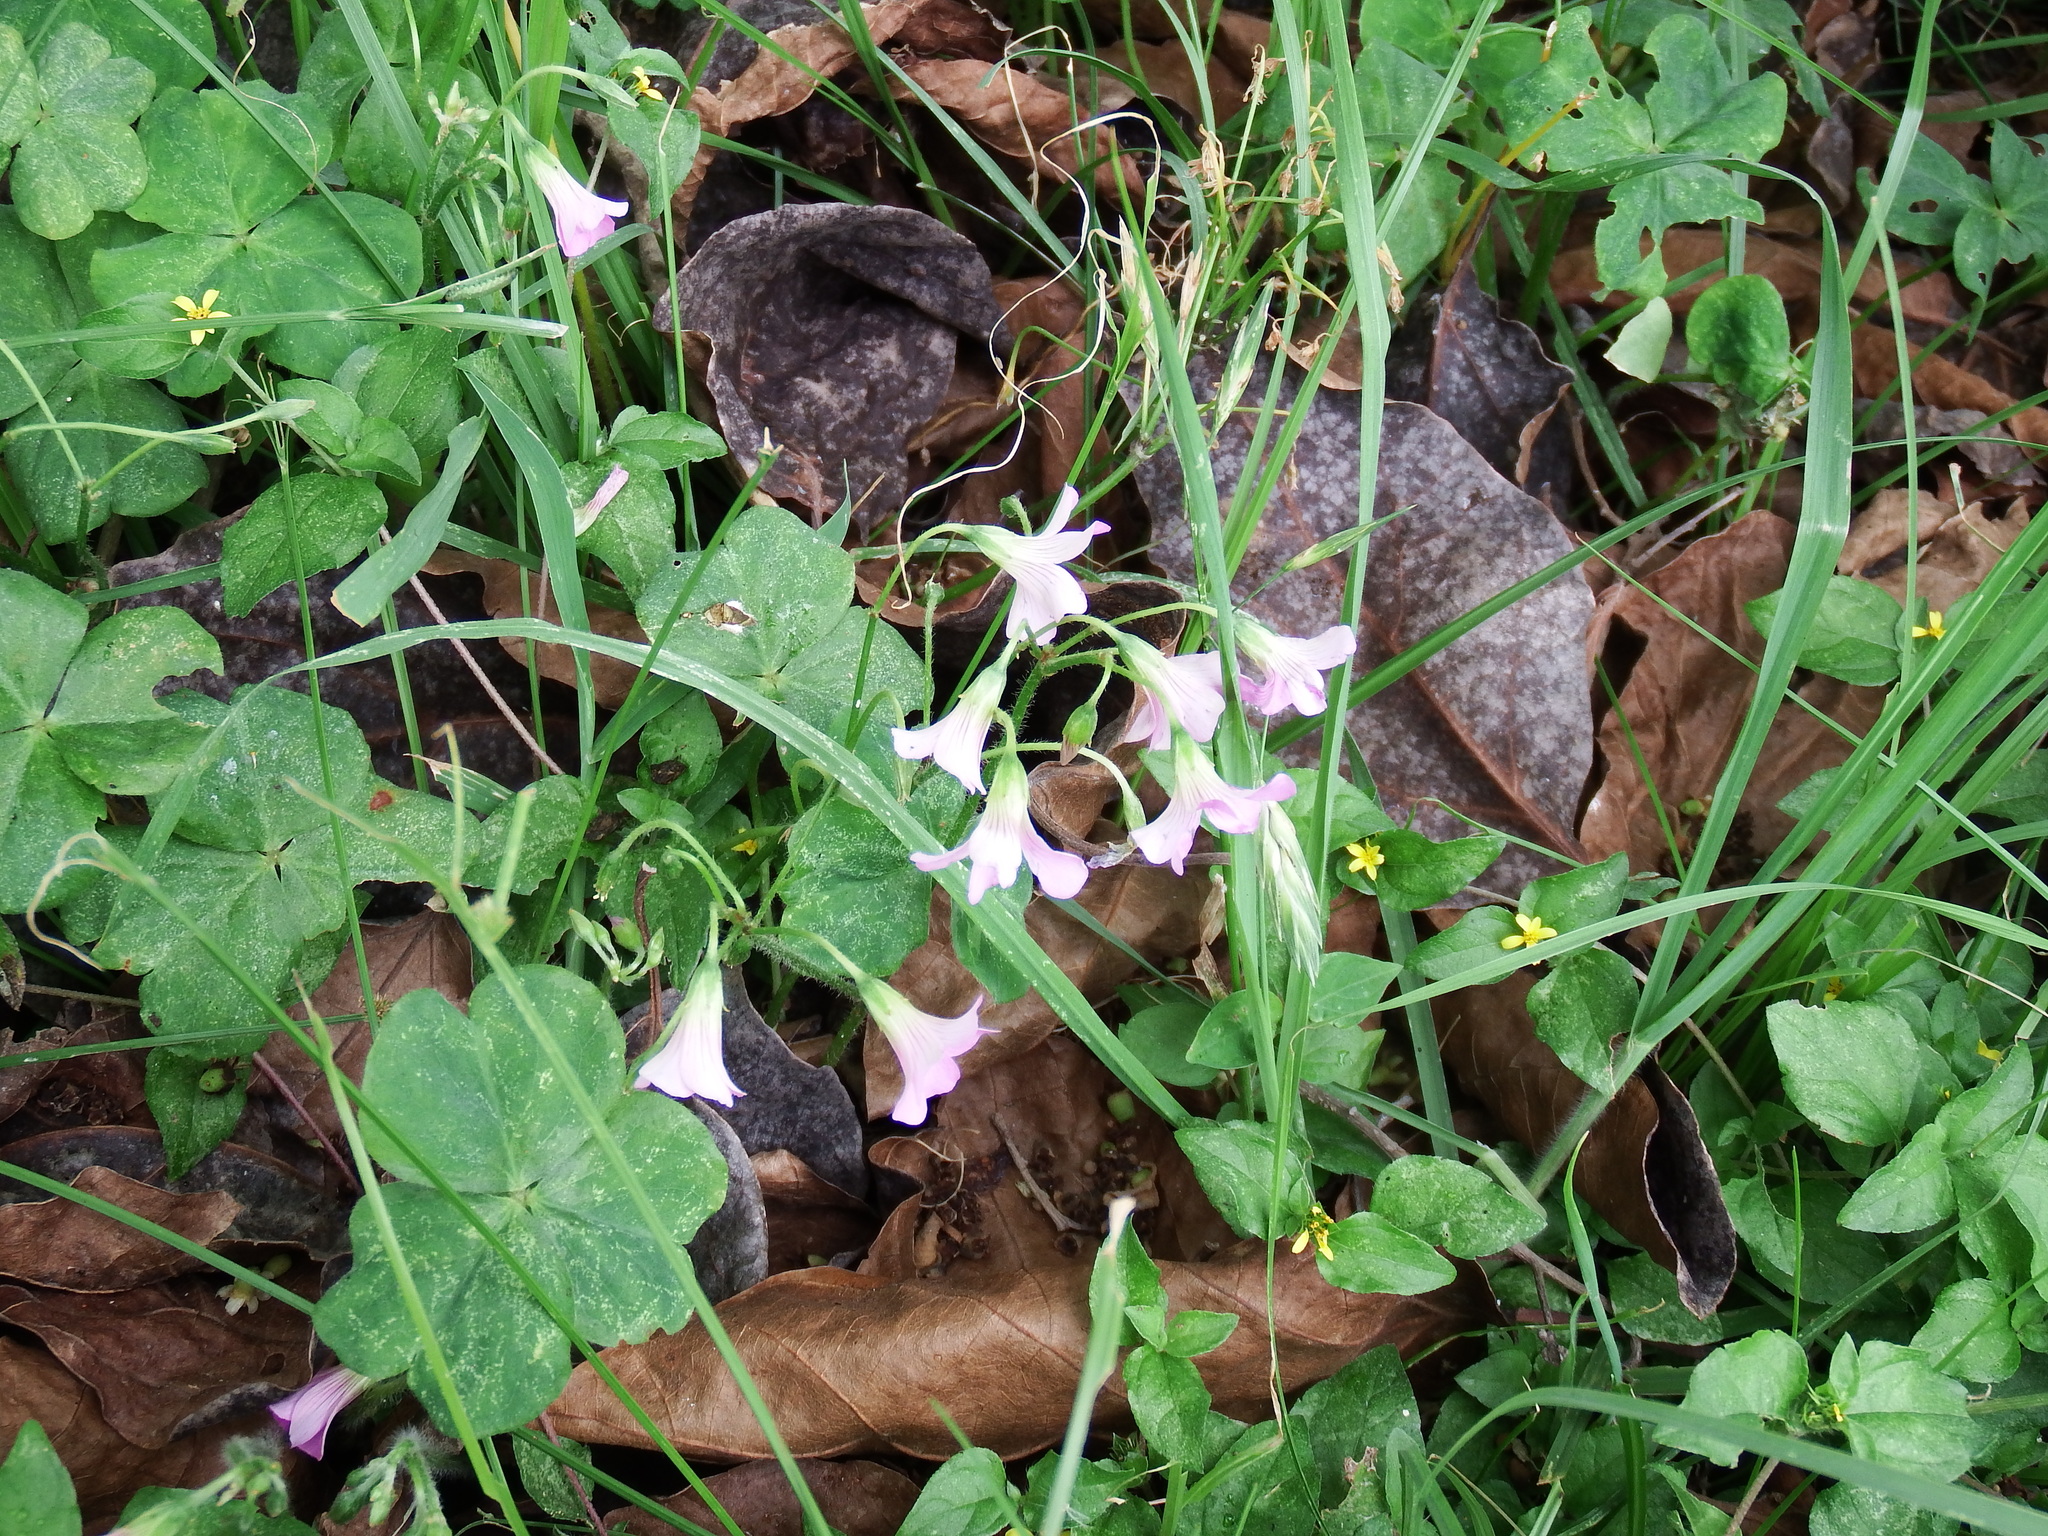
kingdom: Plantae
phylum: Tracheophyta
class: Magnoliopsida
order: Oxalidales
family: Oxalidaceae
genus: Oxalis
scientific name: Oxalis debilis
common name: Large-flowered pink-sorrel
